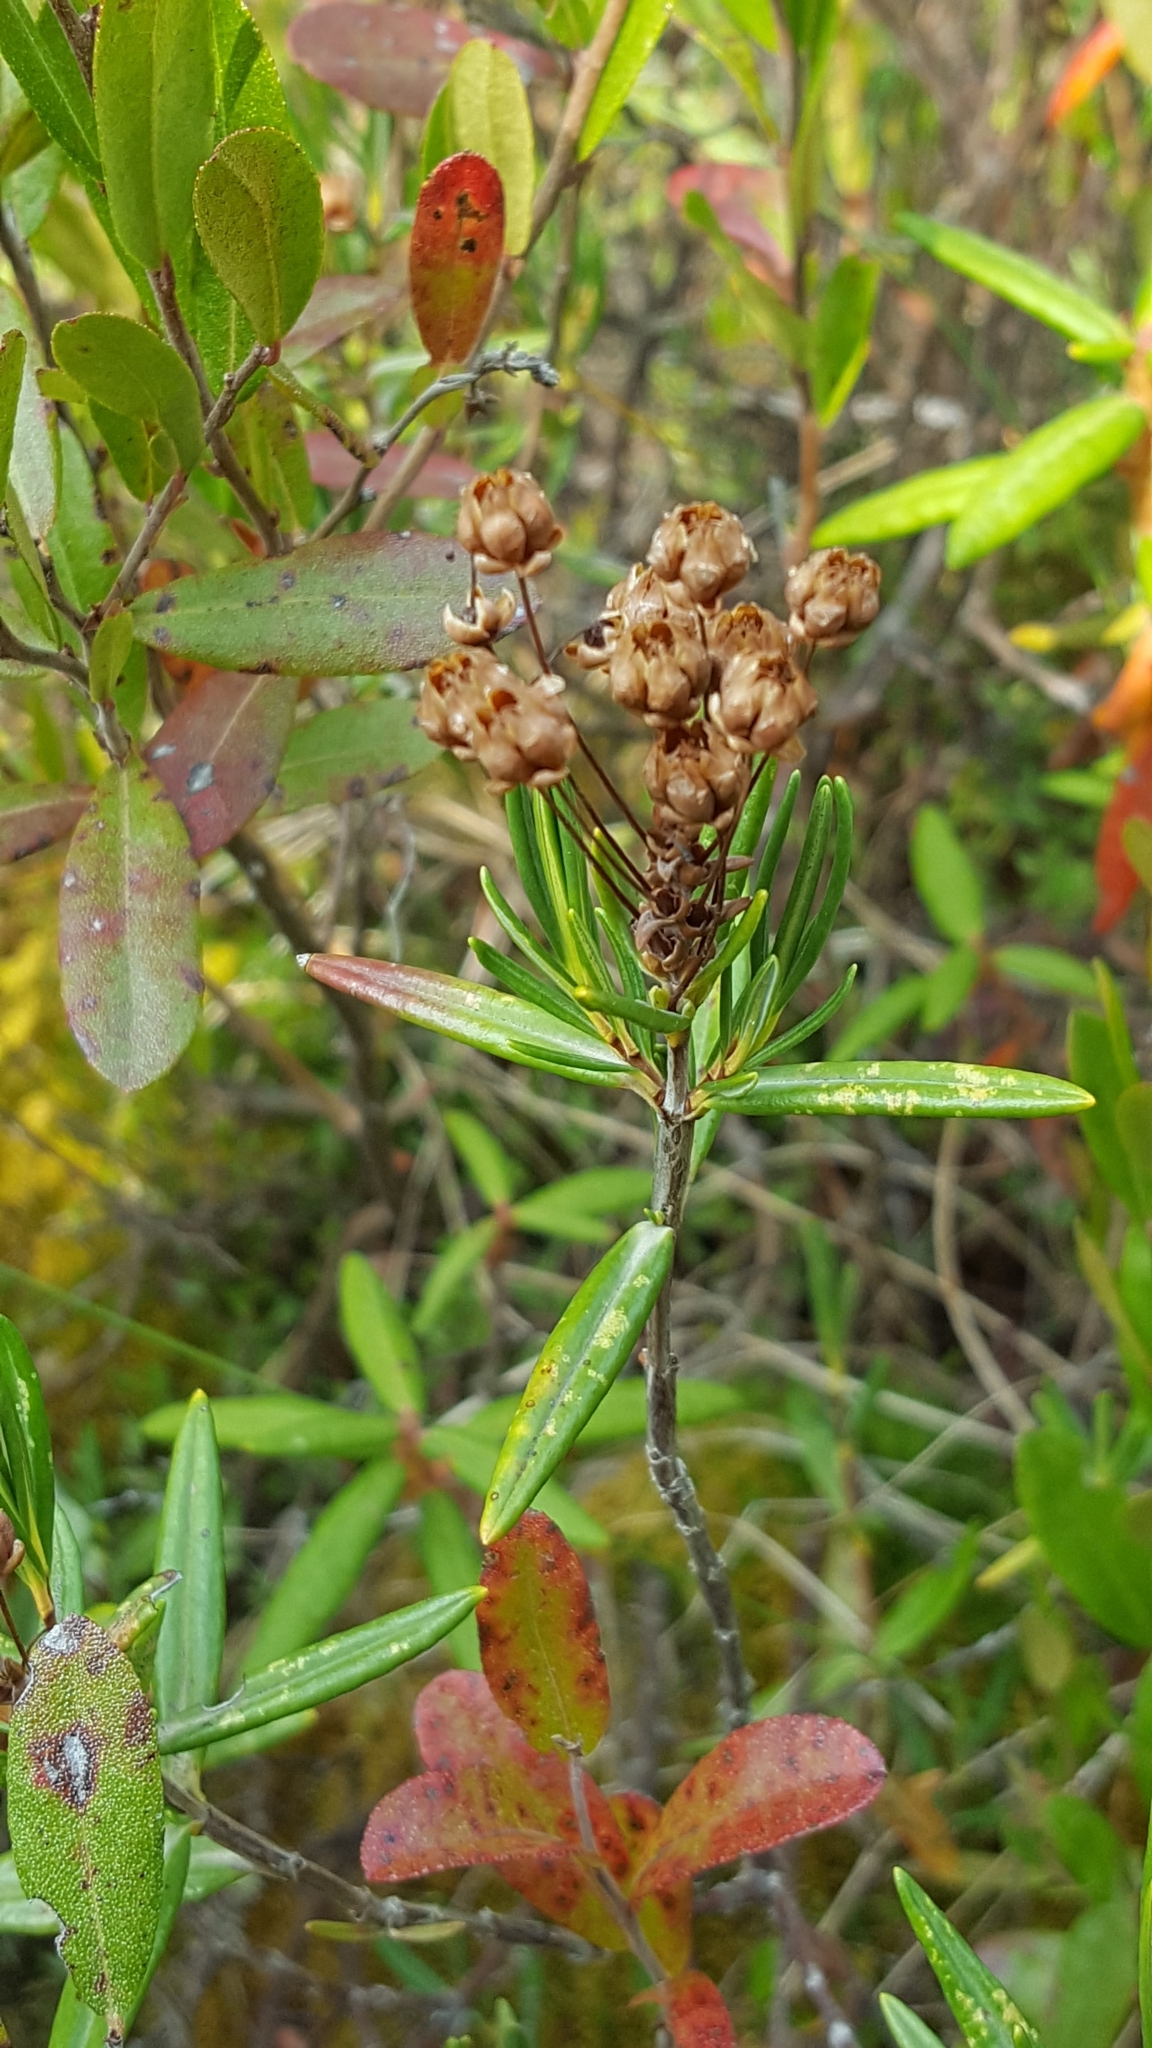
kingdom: Plantae
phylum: Tracheophyta
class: Magnoliopsida
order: Ericales
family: Ericaceae
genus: Kalmia
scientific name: Kalmia polifolia
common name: Bog-laurel
